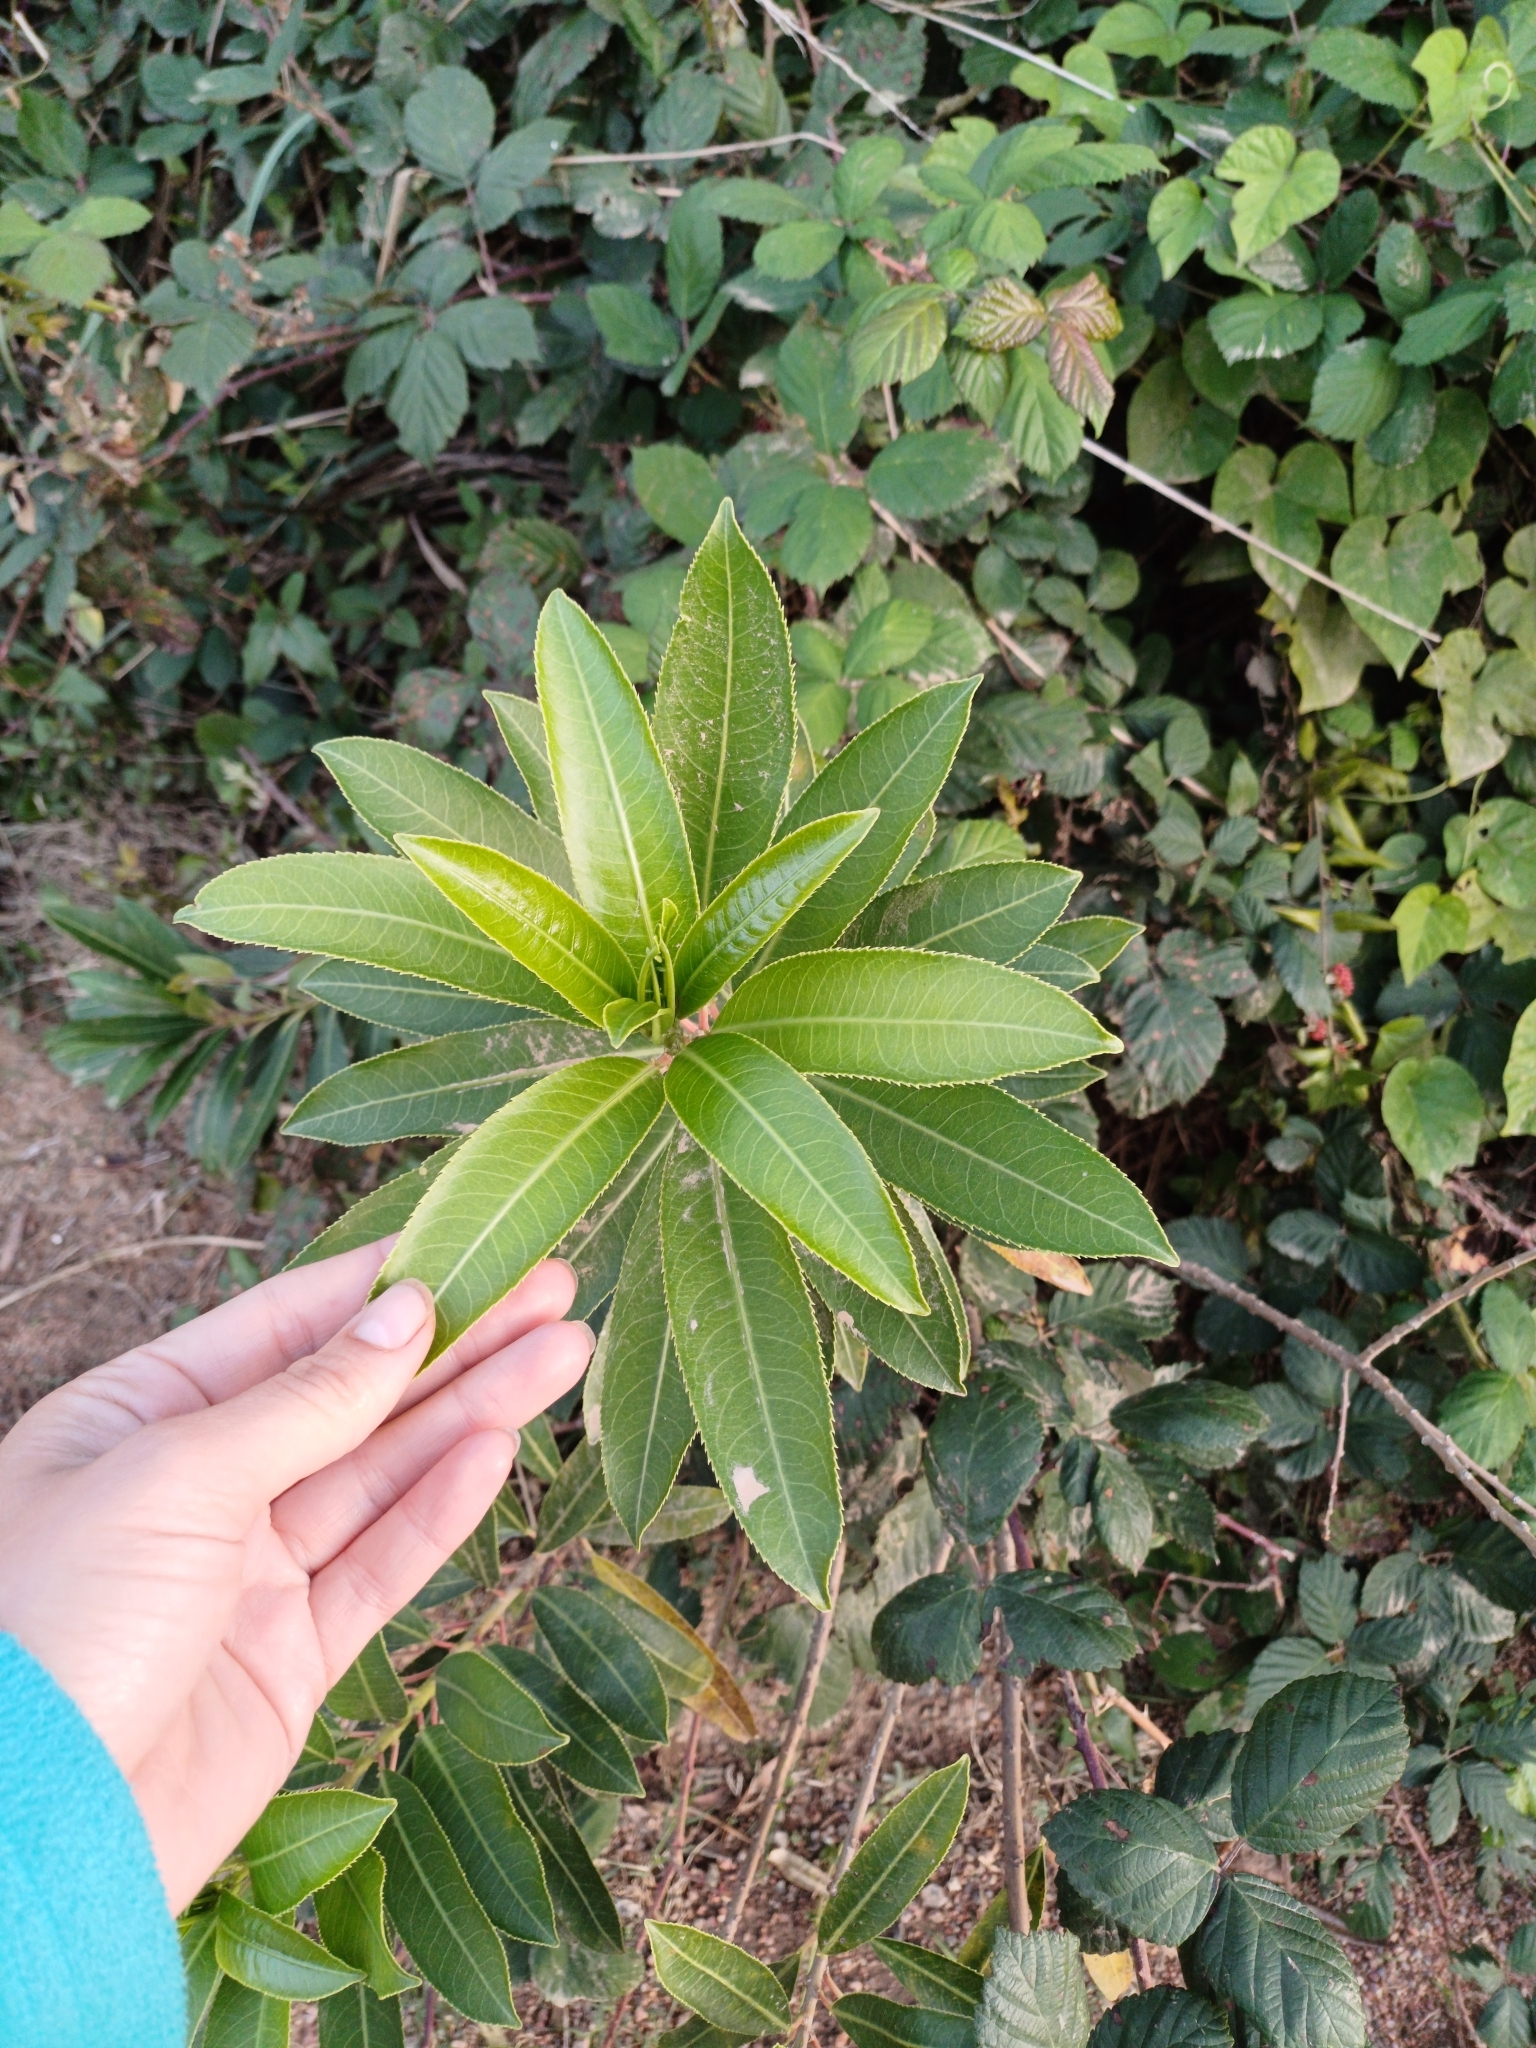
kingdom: Plantae
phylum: Tracheophyta
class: Magnoliopsida
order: Malpighiales
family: Euphorbiaceae
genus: Sapium
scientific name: Sapium glandulosum
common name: Milktree
